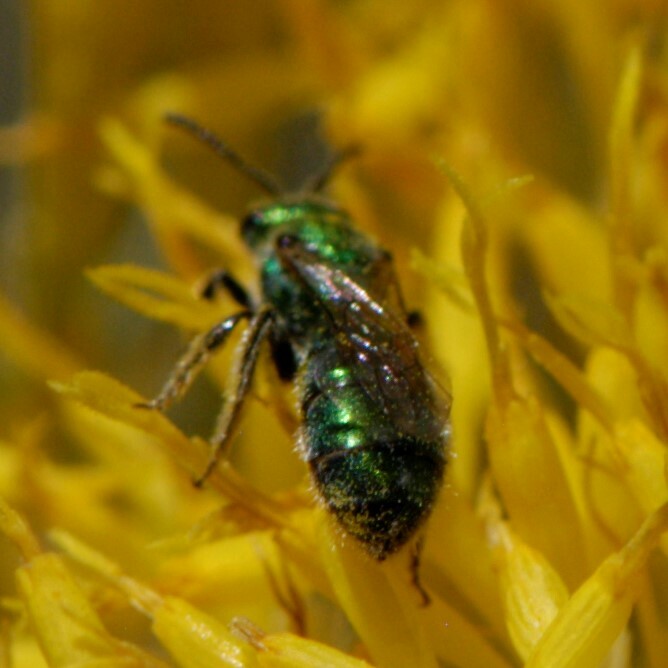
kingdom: Animalia
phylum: Arthropoda
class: Insecta
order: Hymenoptera
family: Halictidae
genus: Augochlorella
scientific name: Augochlorella
